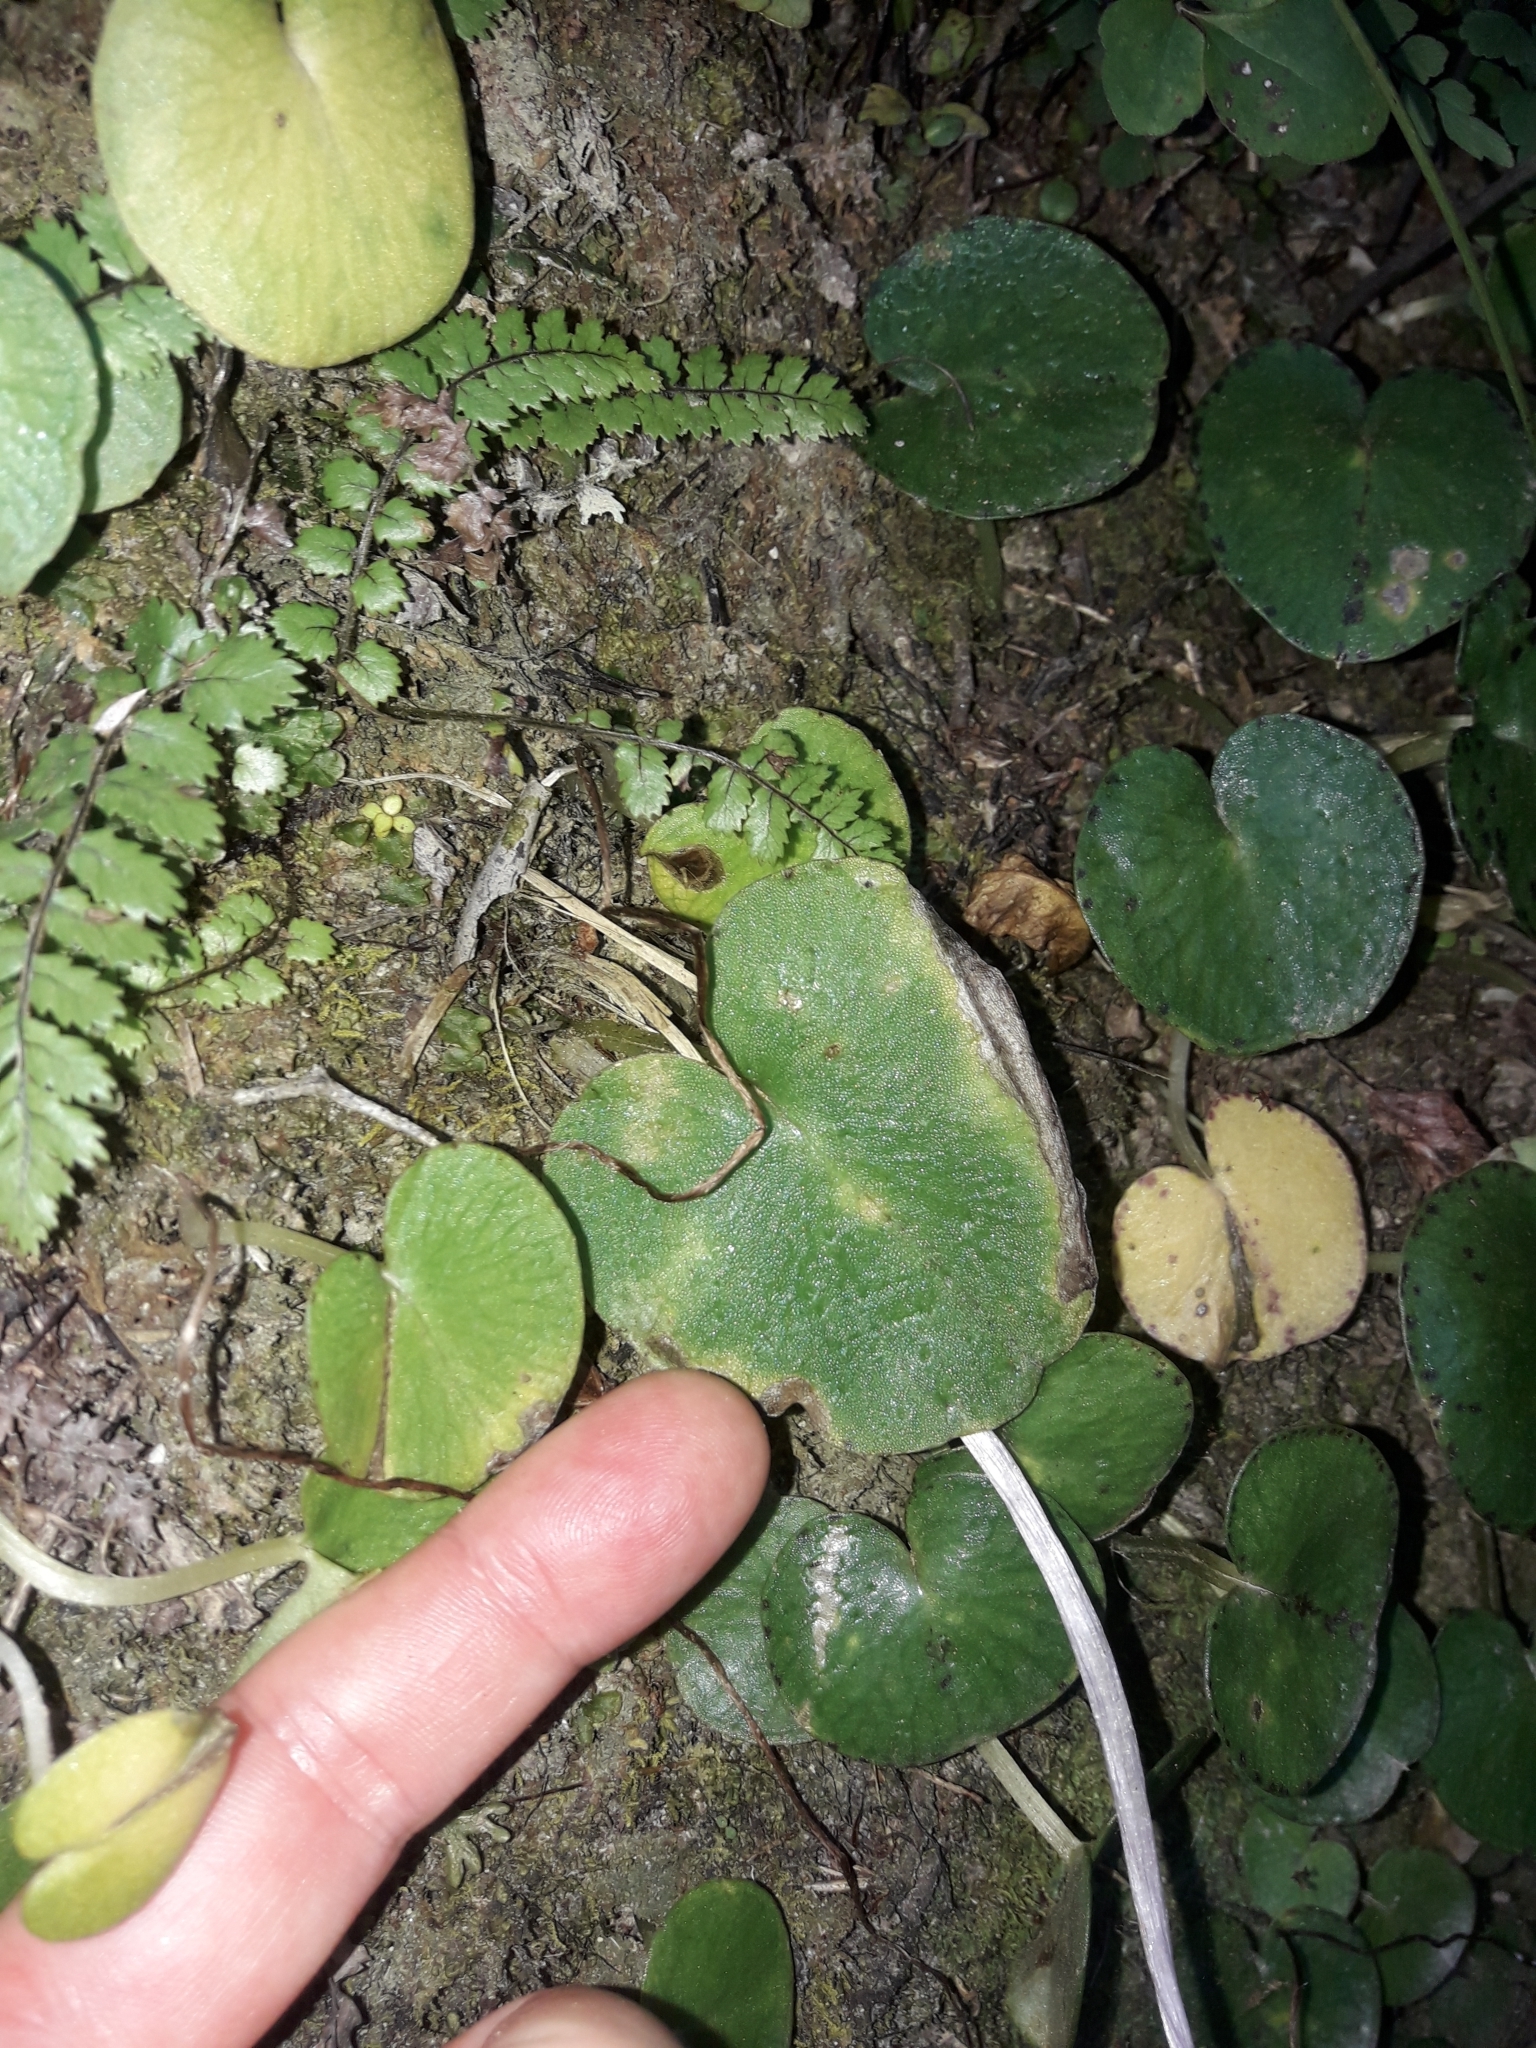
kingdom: Plantae
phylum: Tracheophyta
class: Liliopsida
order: Asparagales
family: Orchidaceae
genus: Corybas
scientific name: Corybas macranthus
